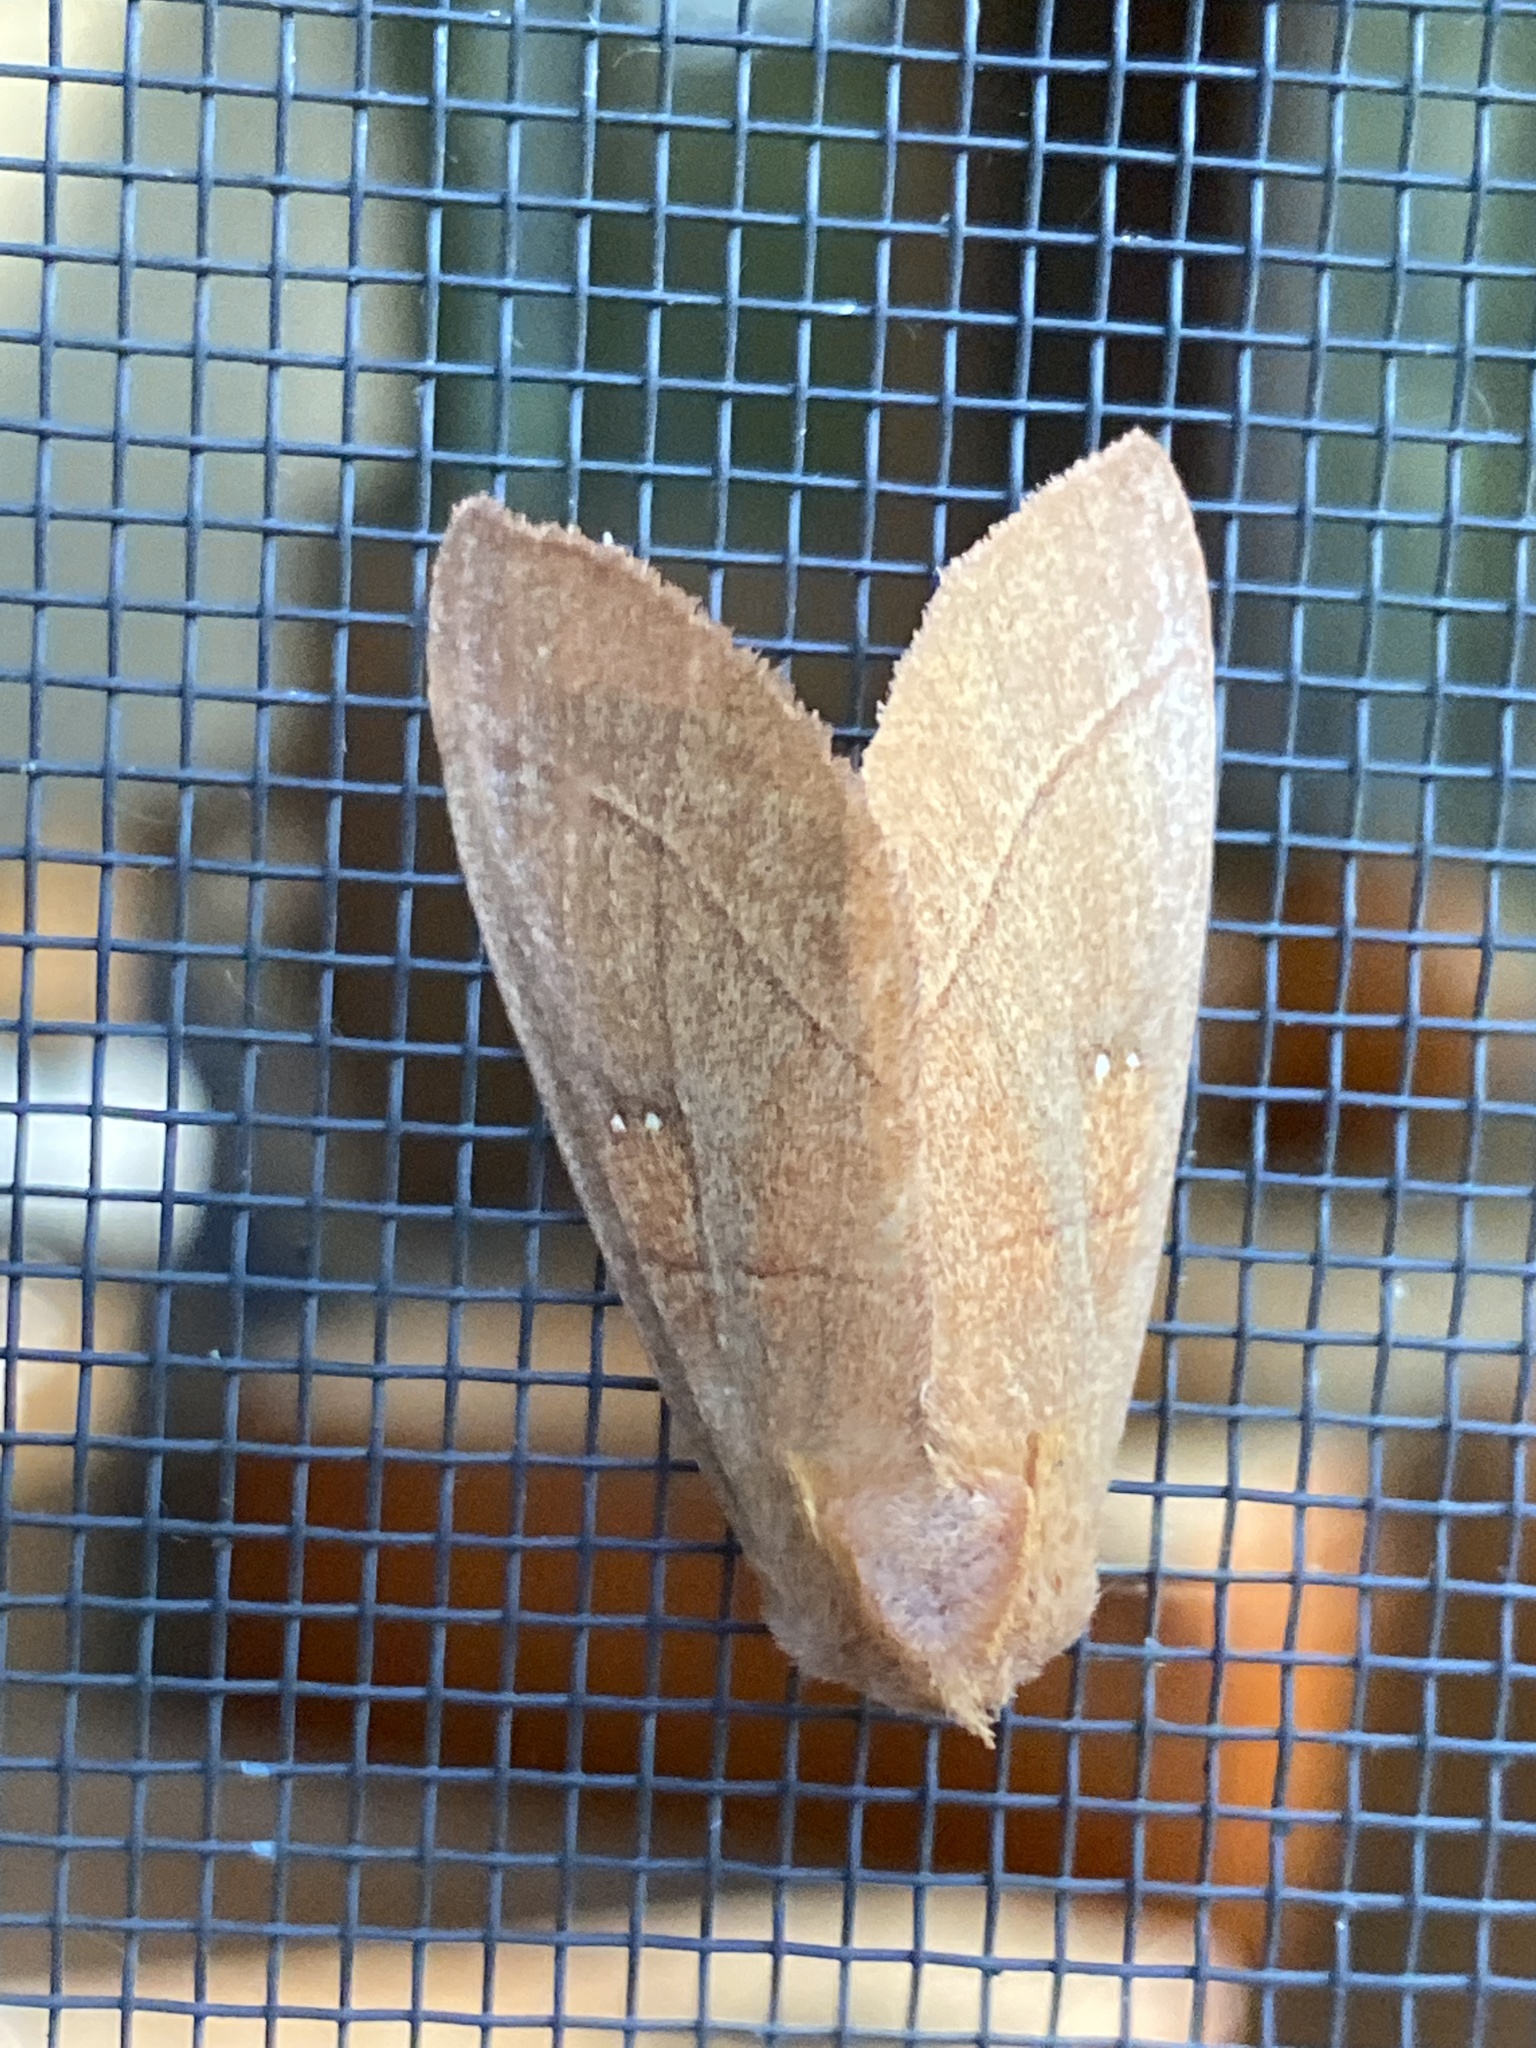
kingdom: Animalia
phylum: Arthropoda
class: Insecta
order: Lepidoptera
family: Notodontidae
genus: Nadata
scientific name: Nadata gibbosa
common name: White-dotted prominent
